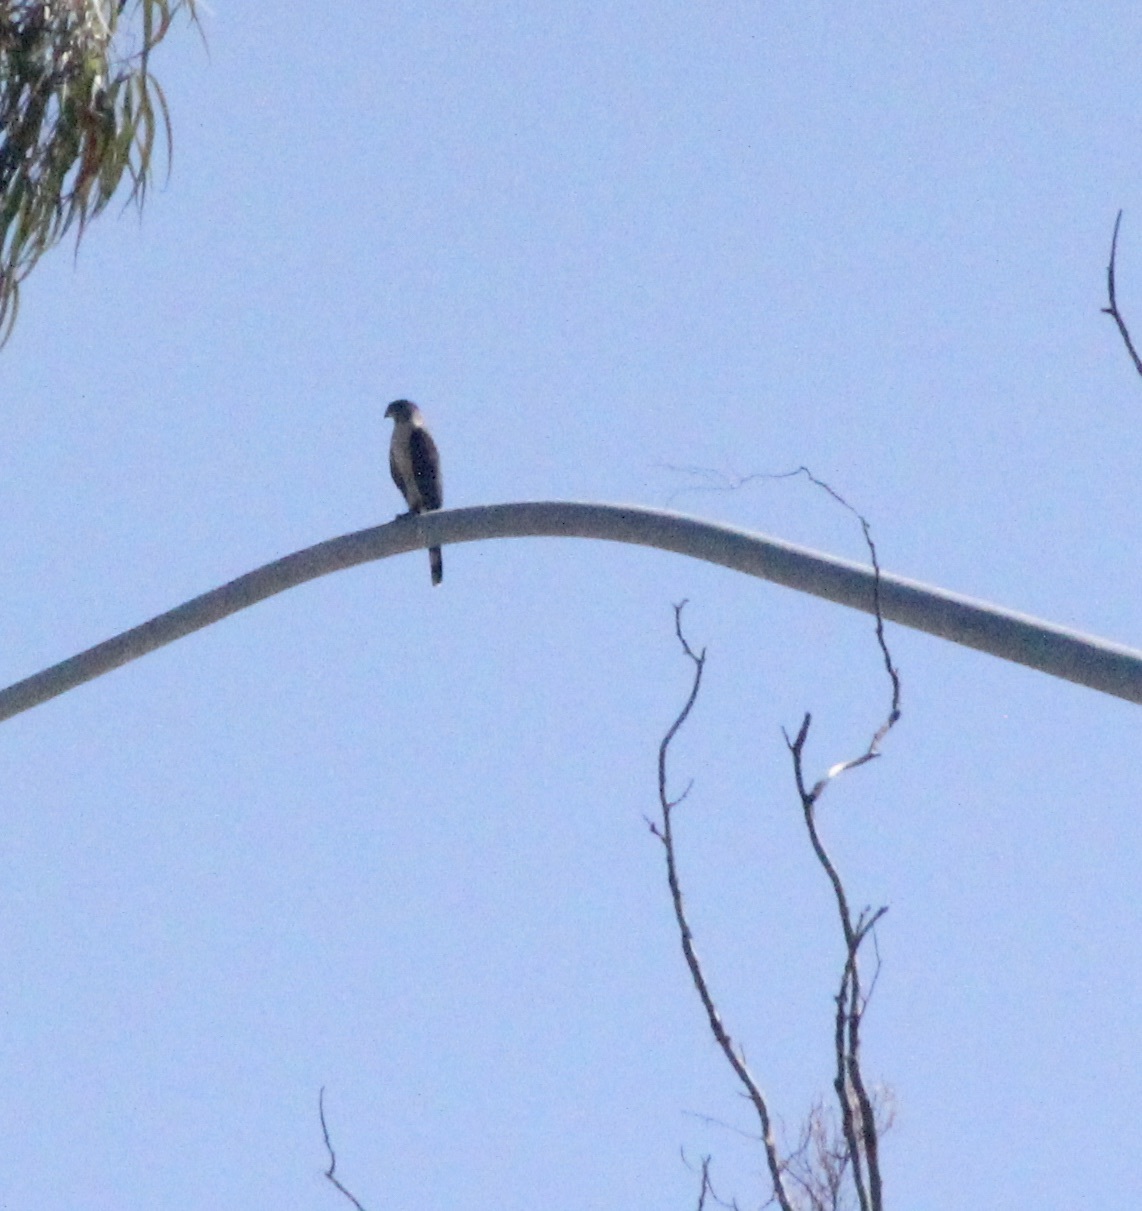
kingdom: Animalia
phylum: Chordata
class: Aves
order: Accipitriformes
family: Accipitridae
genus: Accipiter
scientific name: Accipiter cooperii
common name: Cooper's hawk
